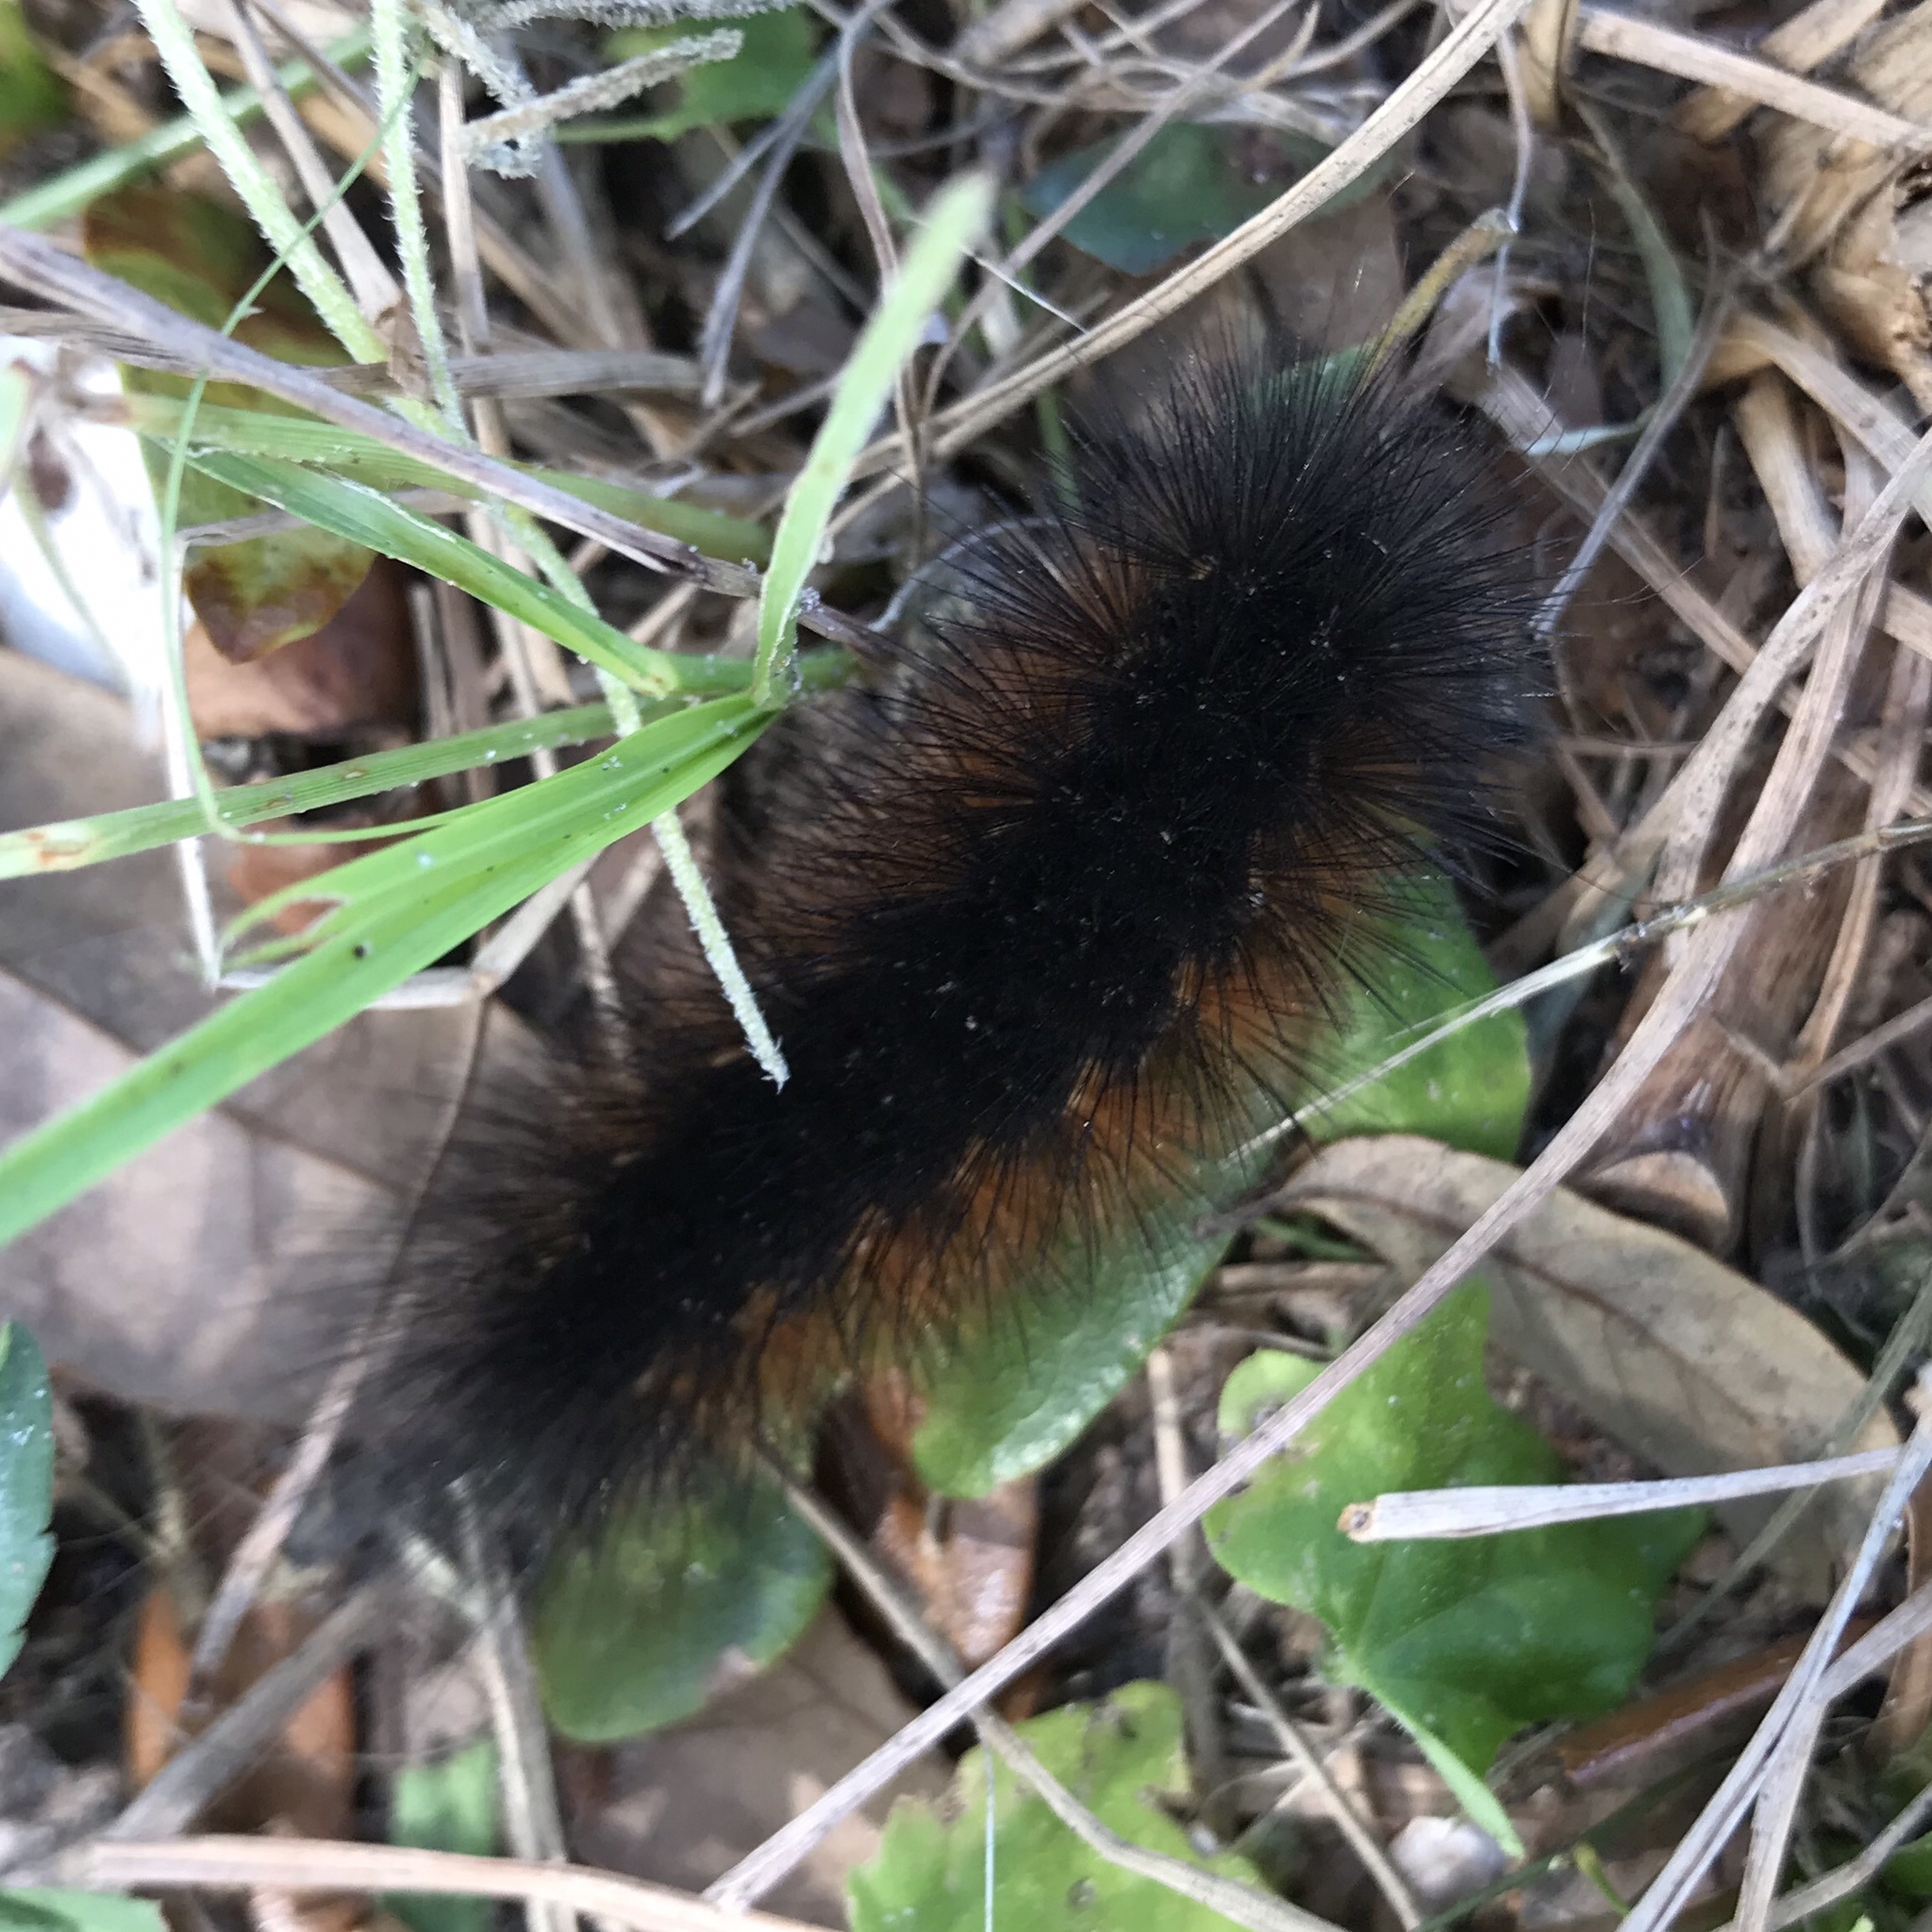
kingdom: Animalia
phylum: Arthropoda
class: Insecta
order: Lepidoptera
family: Erebidae
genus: Estigmene
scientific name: Estigmene acrea
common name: Salt marsh moth
